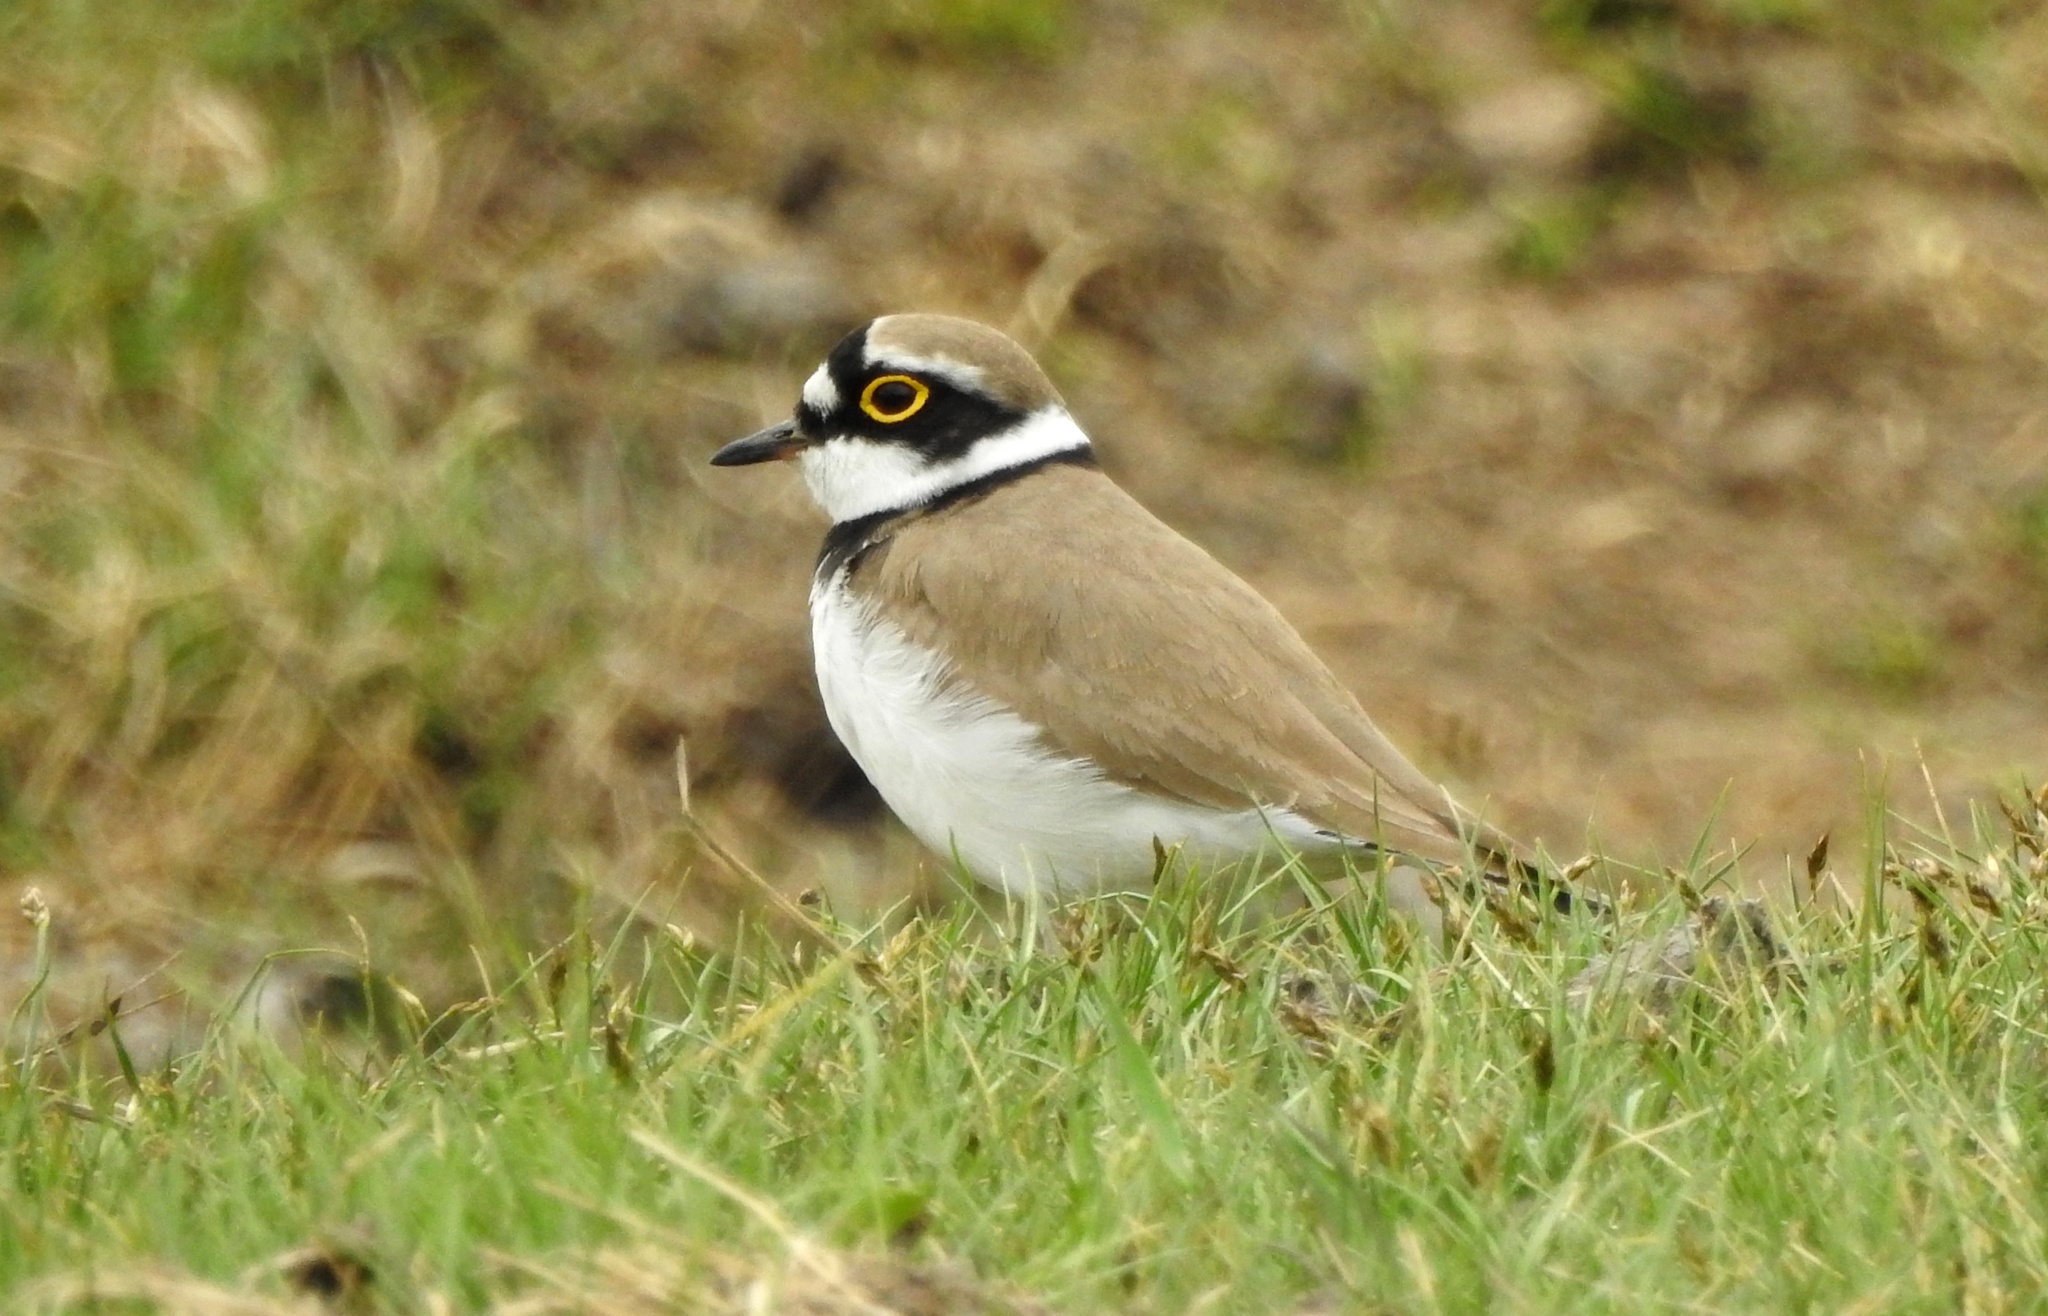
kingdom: Animalia
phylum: Chordata
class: Aves
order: Charadriiformes
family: Charadriidae
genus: Charadrius
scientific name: Charadrius dubius
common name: Little ringed plover
